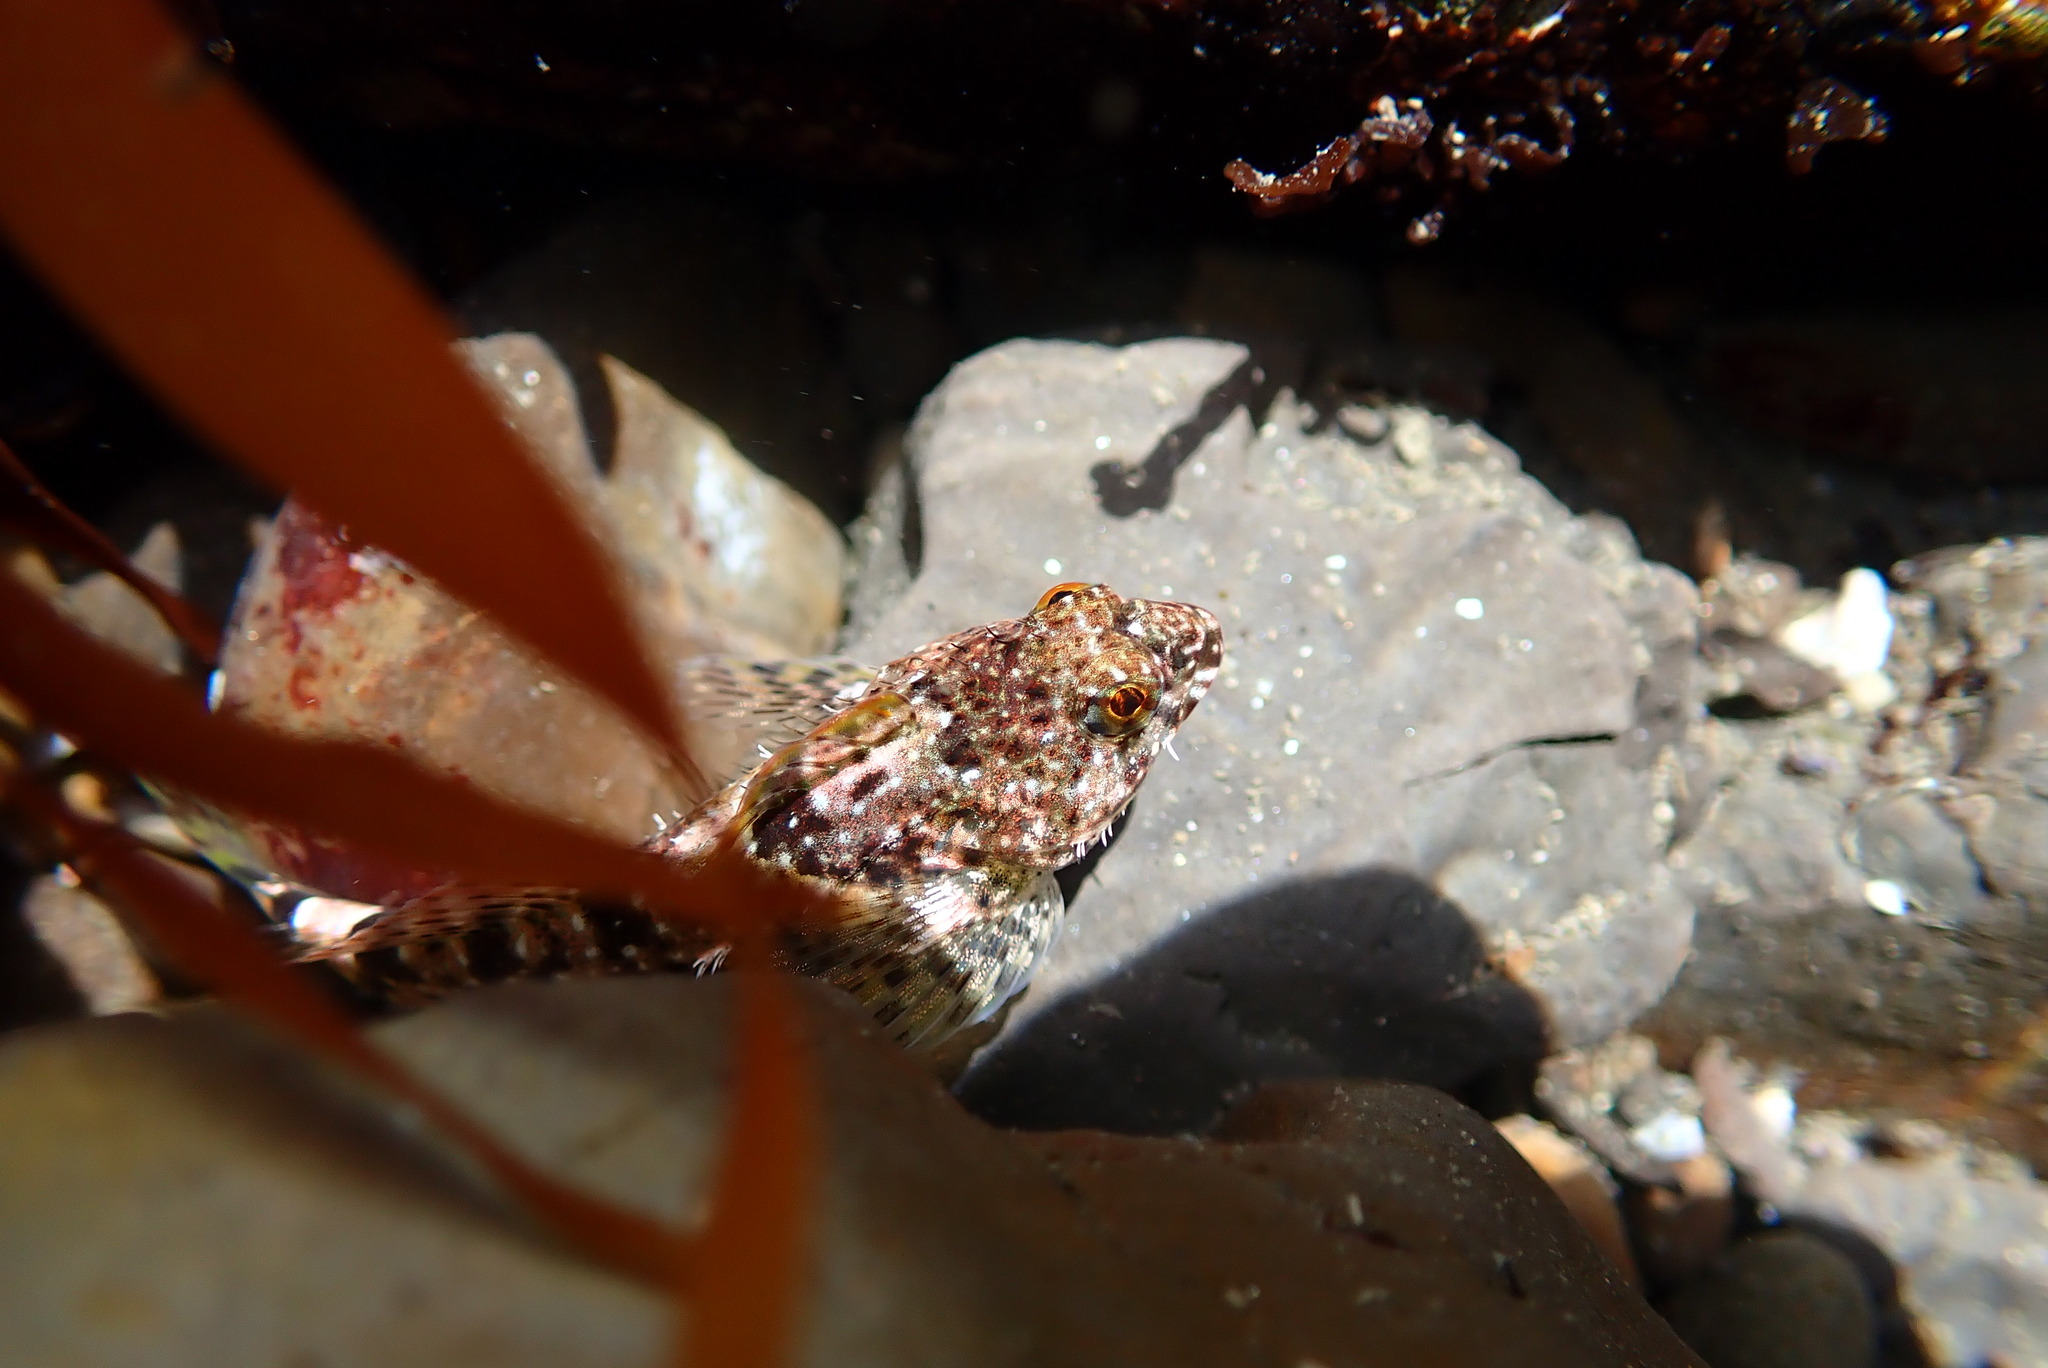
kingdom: Animalia
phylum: Chordata
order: Scorpaeniformes
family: Cottidae
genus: Clinocottus
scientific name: Clinocottus analis
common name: Woolly sculpin
